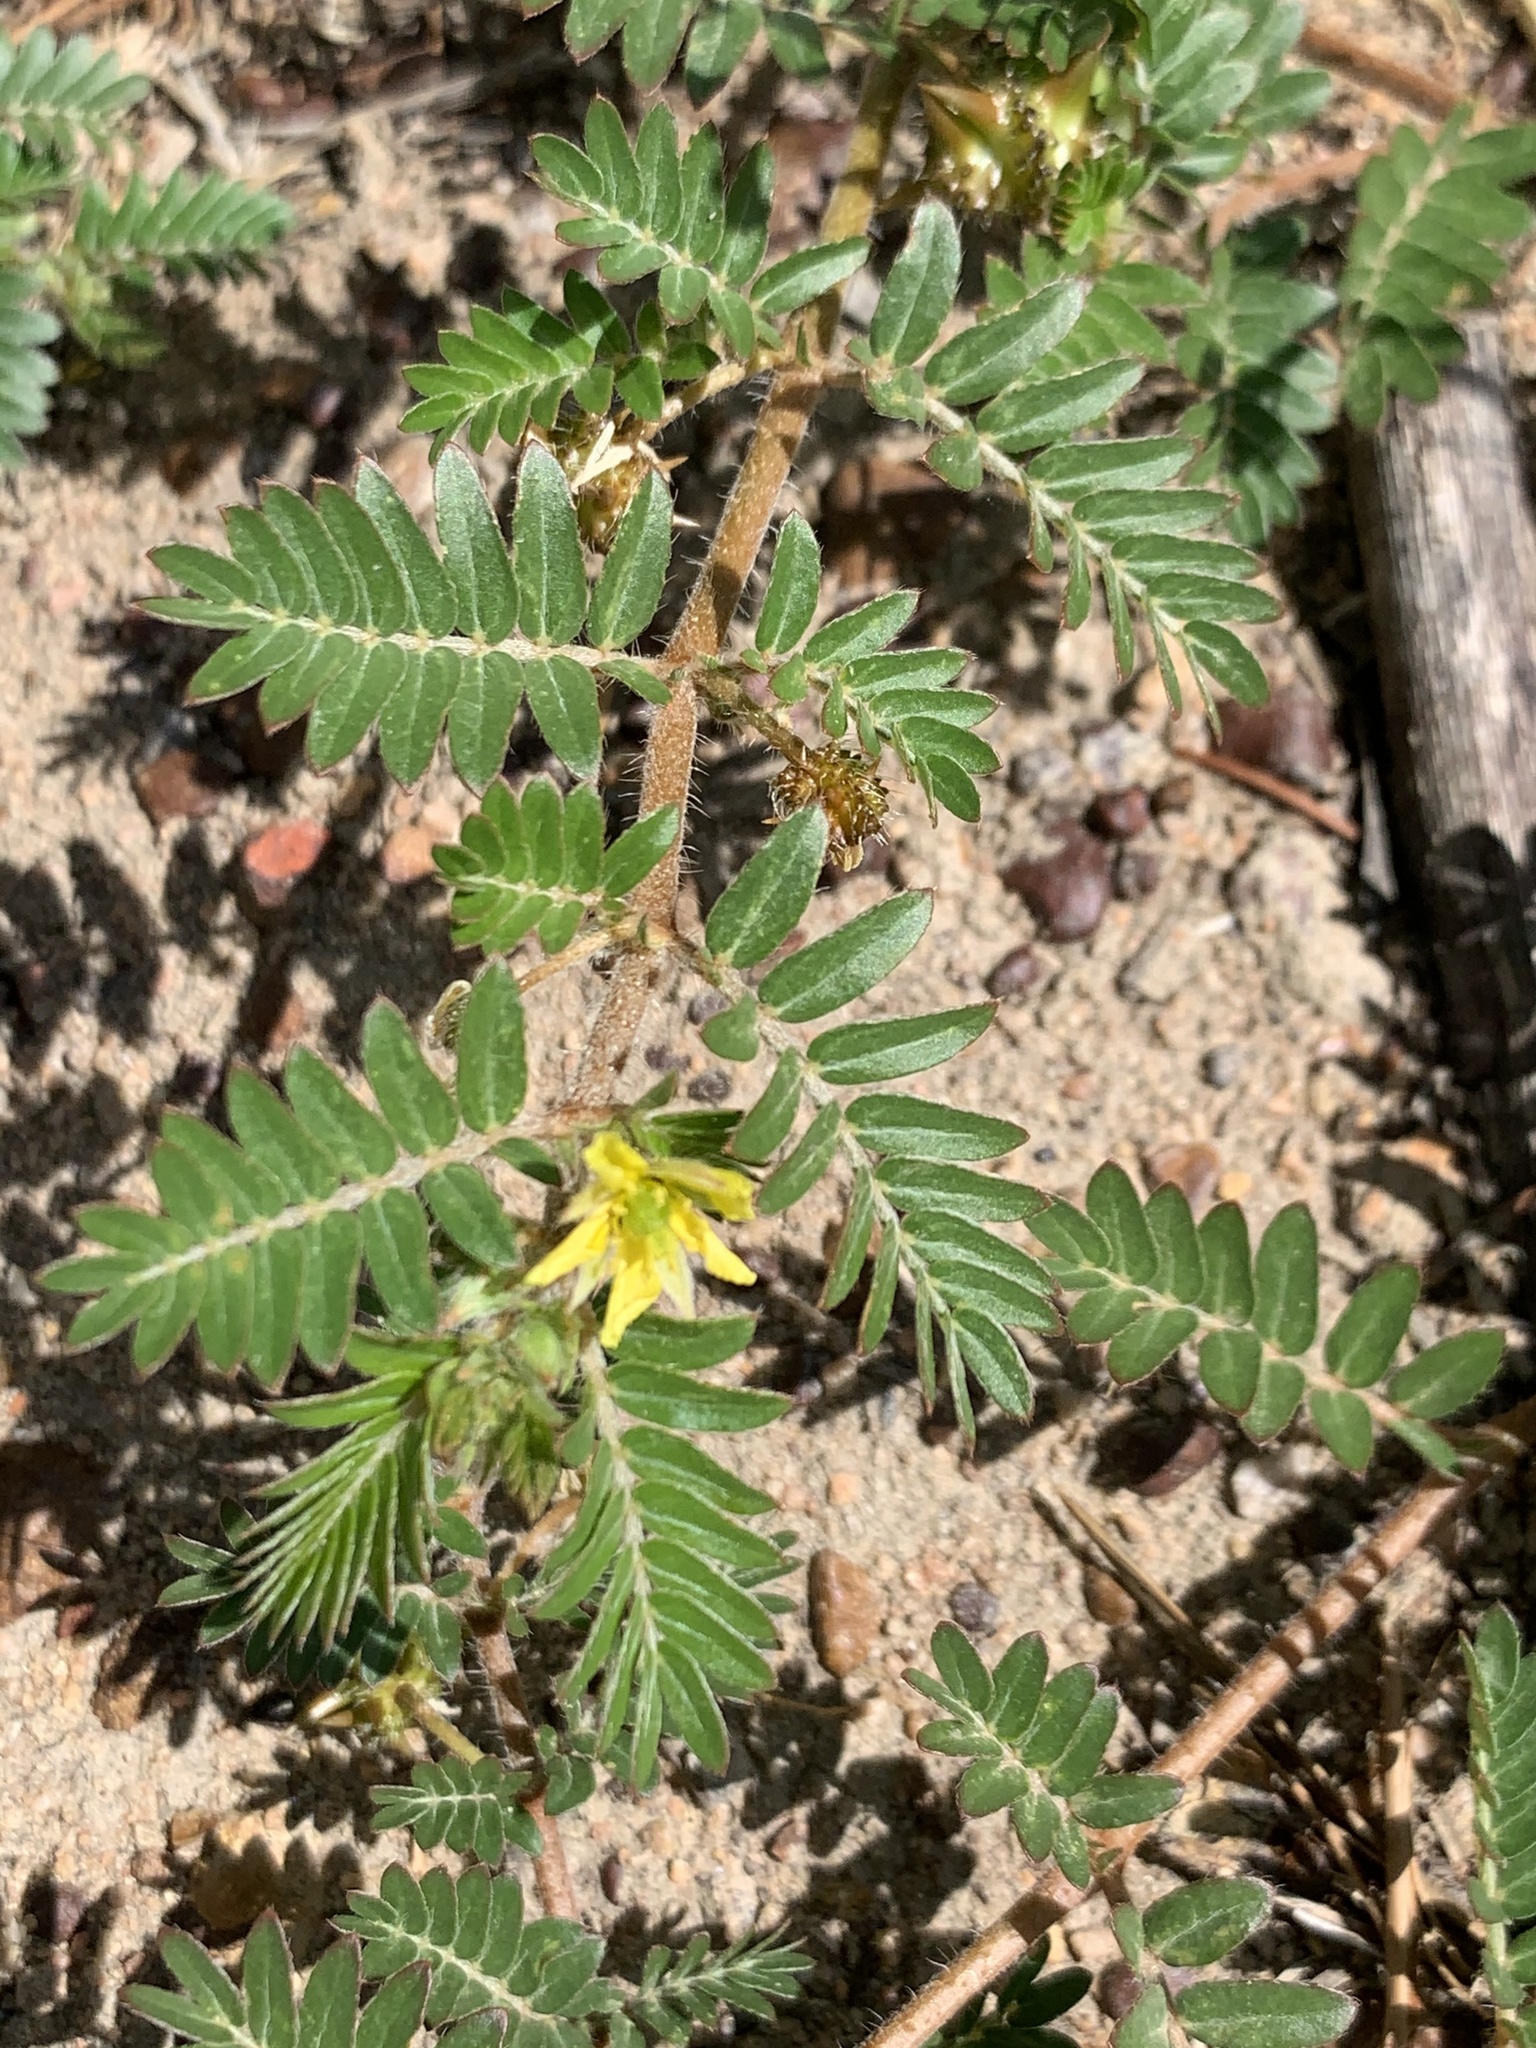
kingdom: Plantae
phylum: Tracheophyta
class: Magnoliopsida
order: Zygophyllales
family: Zygophyllaceae
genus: Tribulus
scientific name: Tribulus terrestris
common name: Puncturevine
